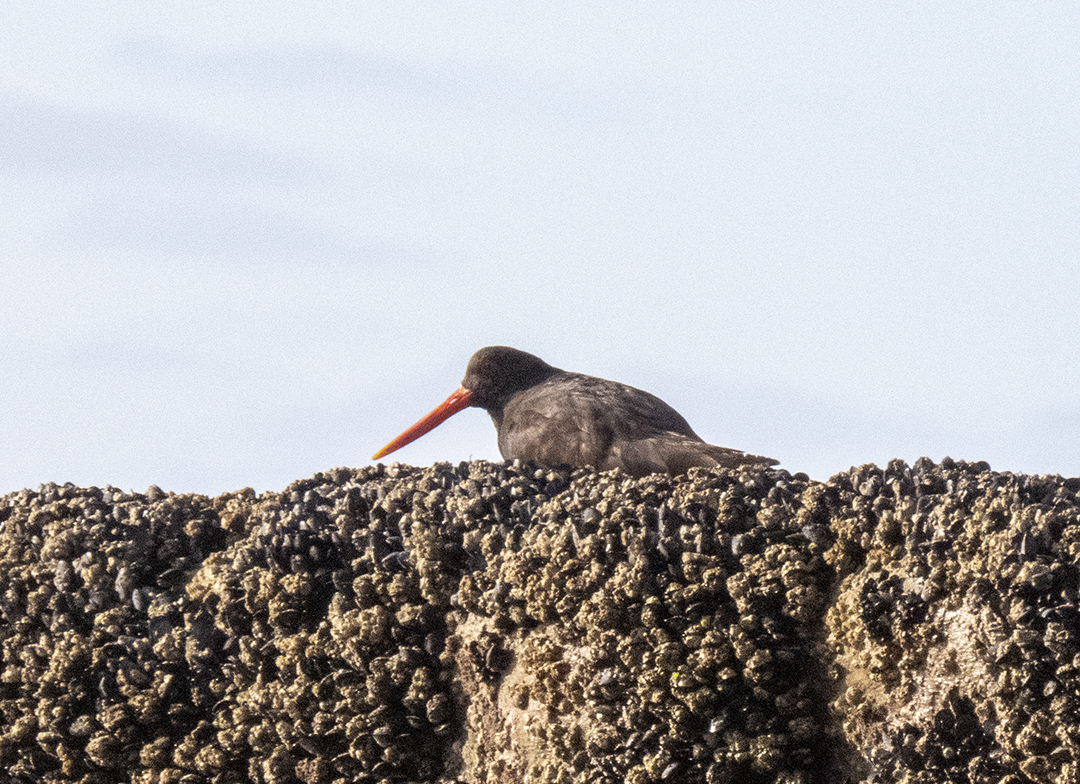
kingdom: Animalia
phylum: Chordata
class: Aves
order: Charadriiformes
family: Haematopodidae
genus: Haematopus
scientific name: Haematopus unicolor
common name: Variable oystercatcher
